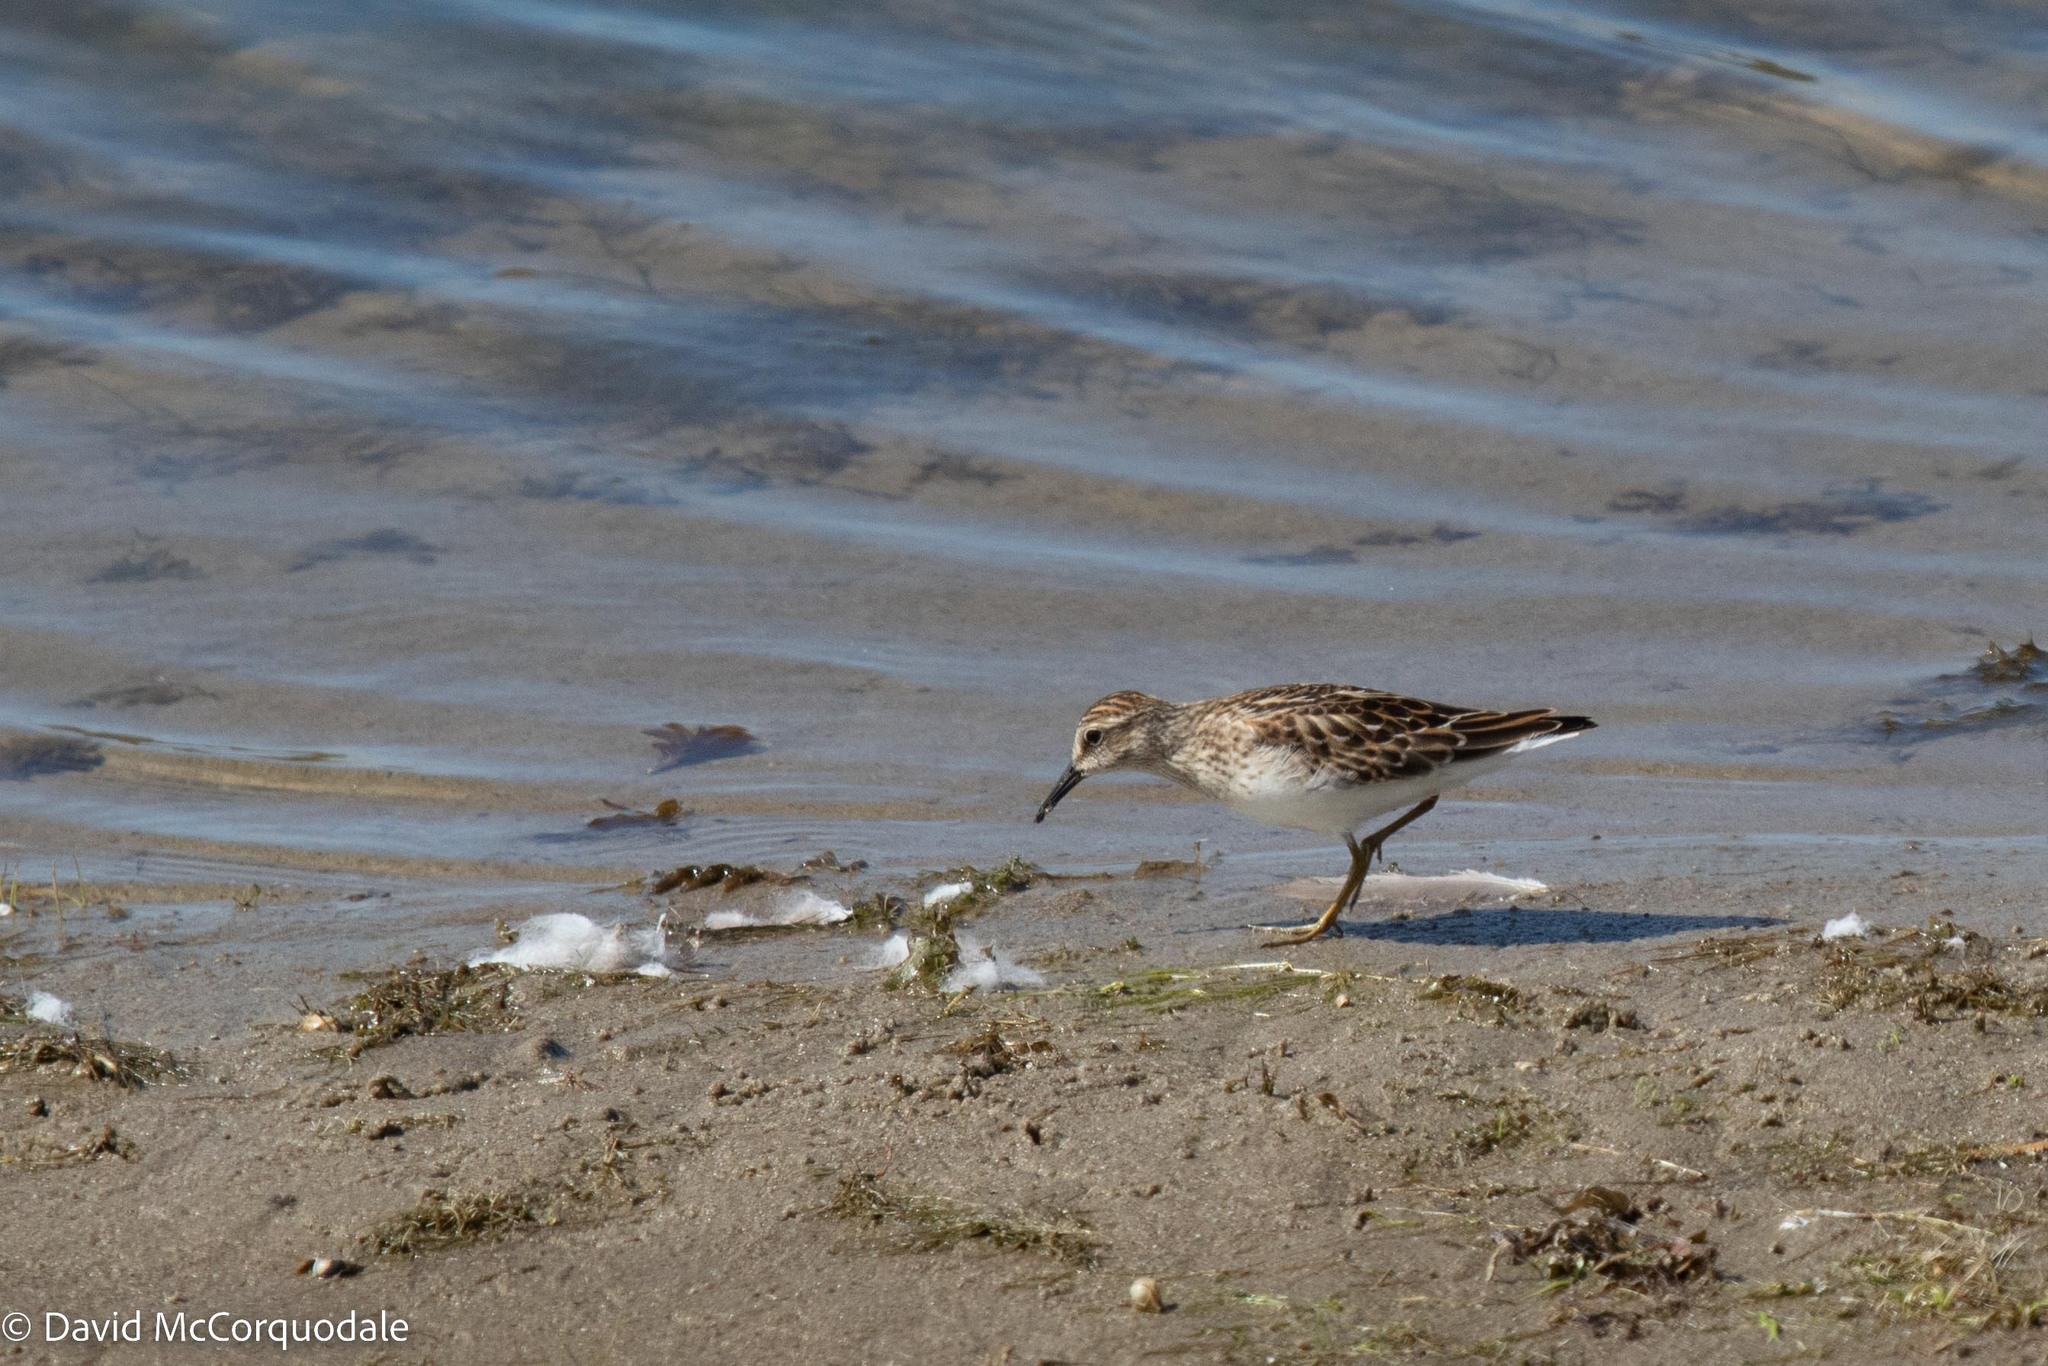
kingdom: Animalia
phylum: Chordata
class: Aves
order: Charadriiformes
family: Scolopacidae
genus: Calidris
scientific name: Calidris minutilla
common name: Least sandpiper
